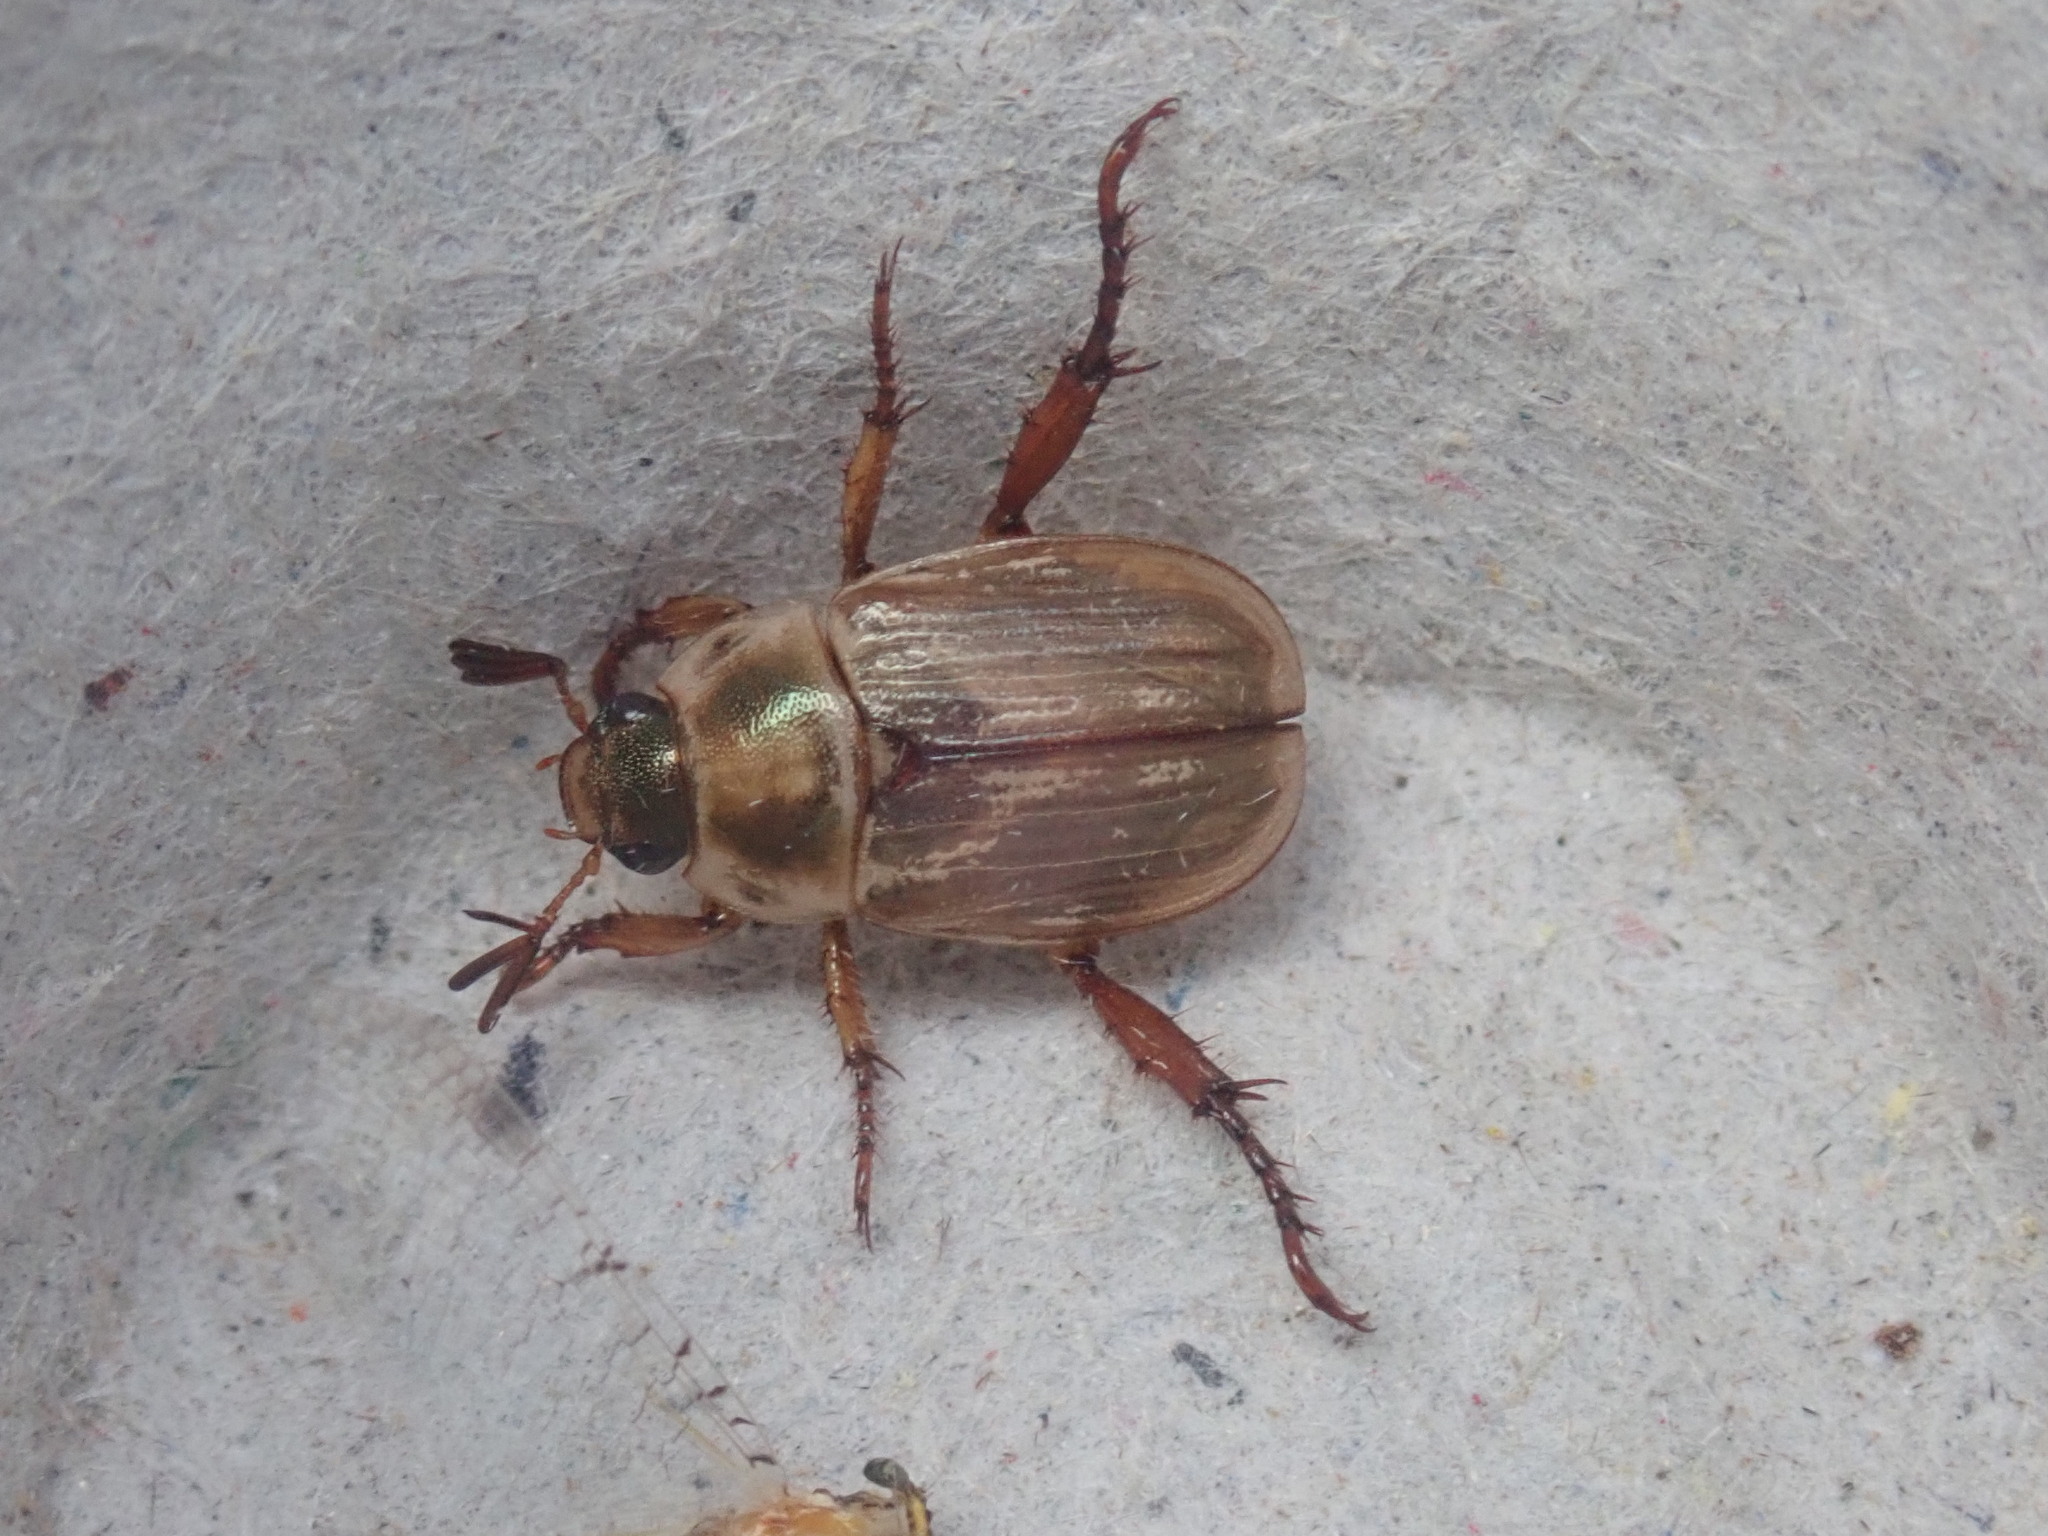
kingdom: Animalia
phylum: Arthropoda
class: Insecta
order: Coleoptera
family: Scarabaeidae
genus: Exomala
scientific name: Exomala orientalis
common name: Oriental beetle
